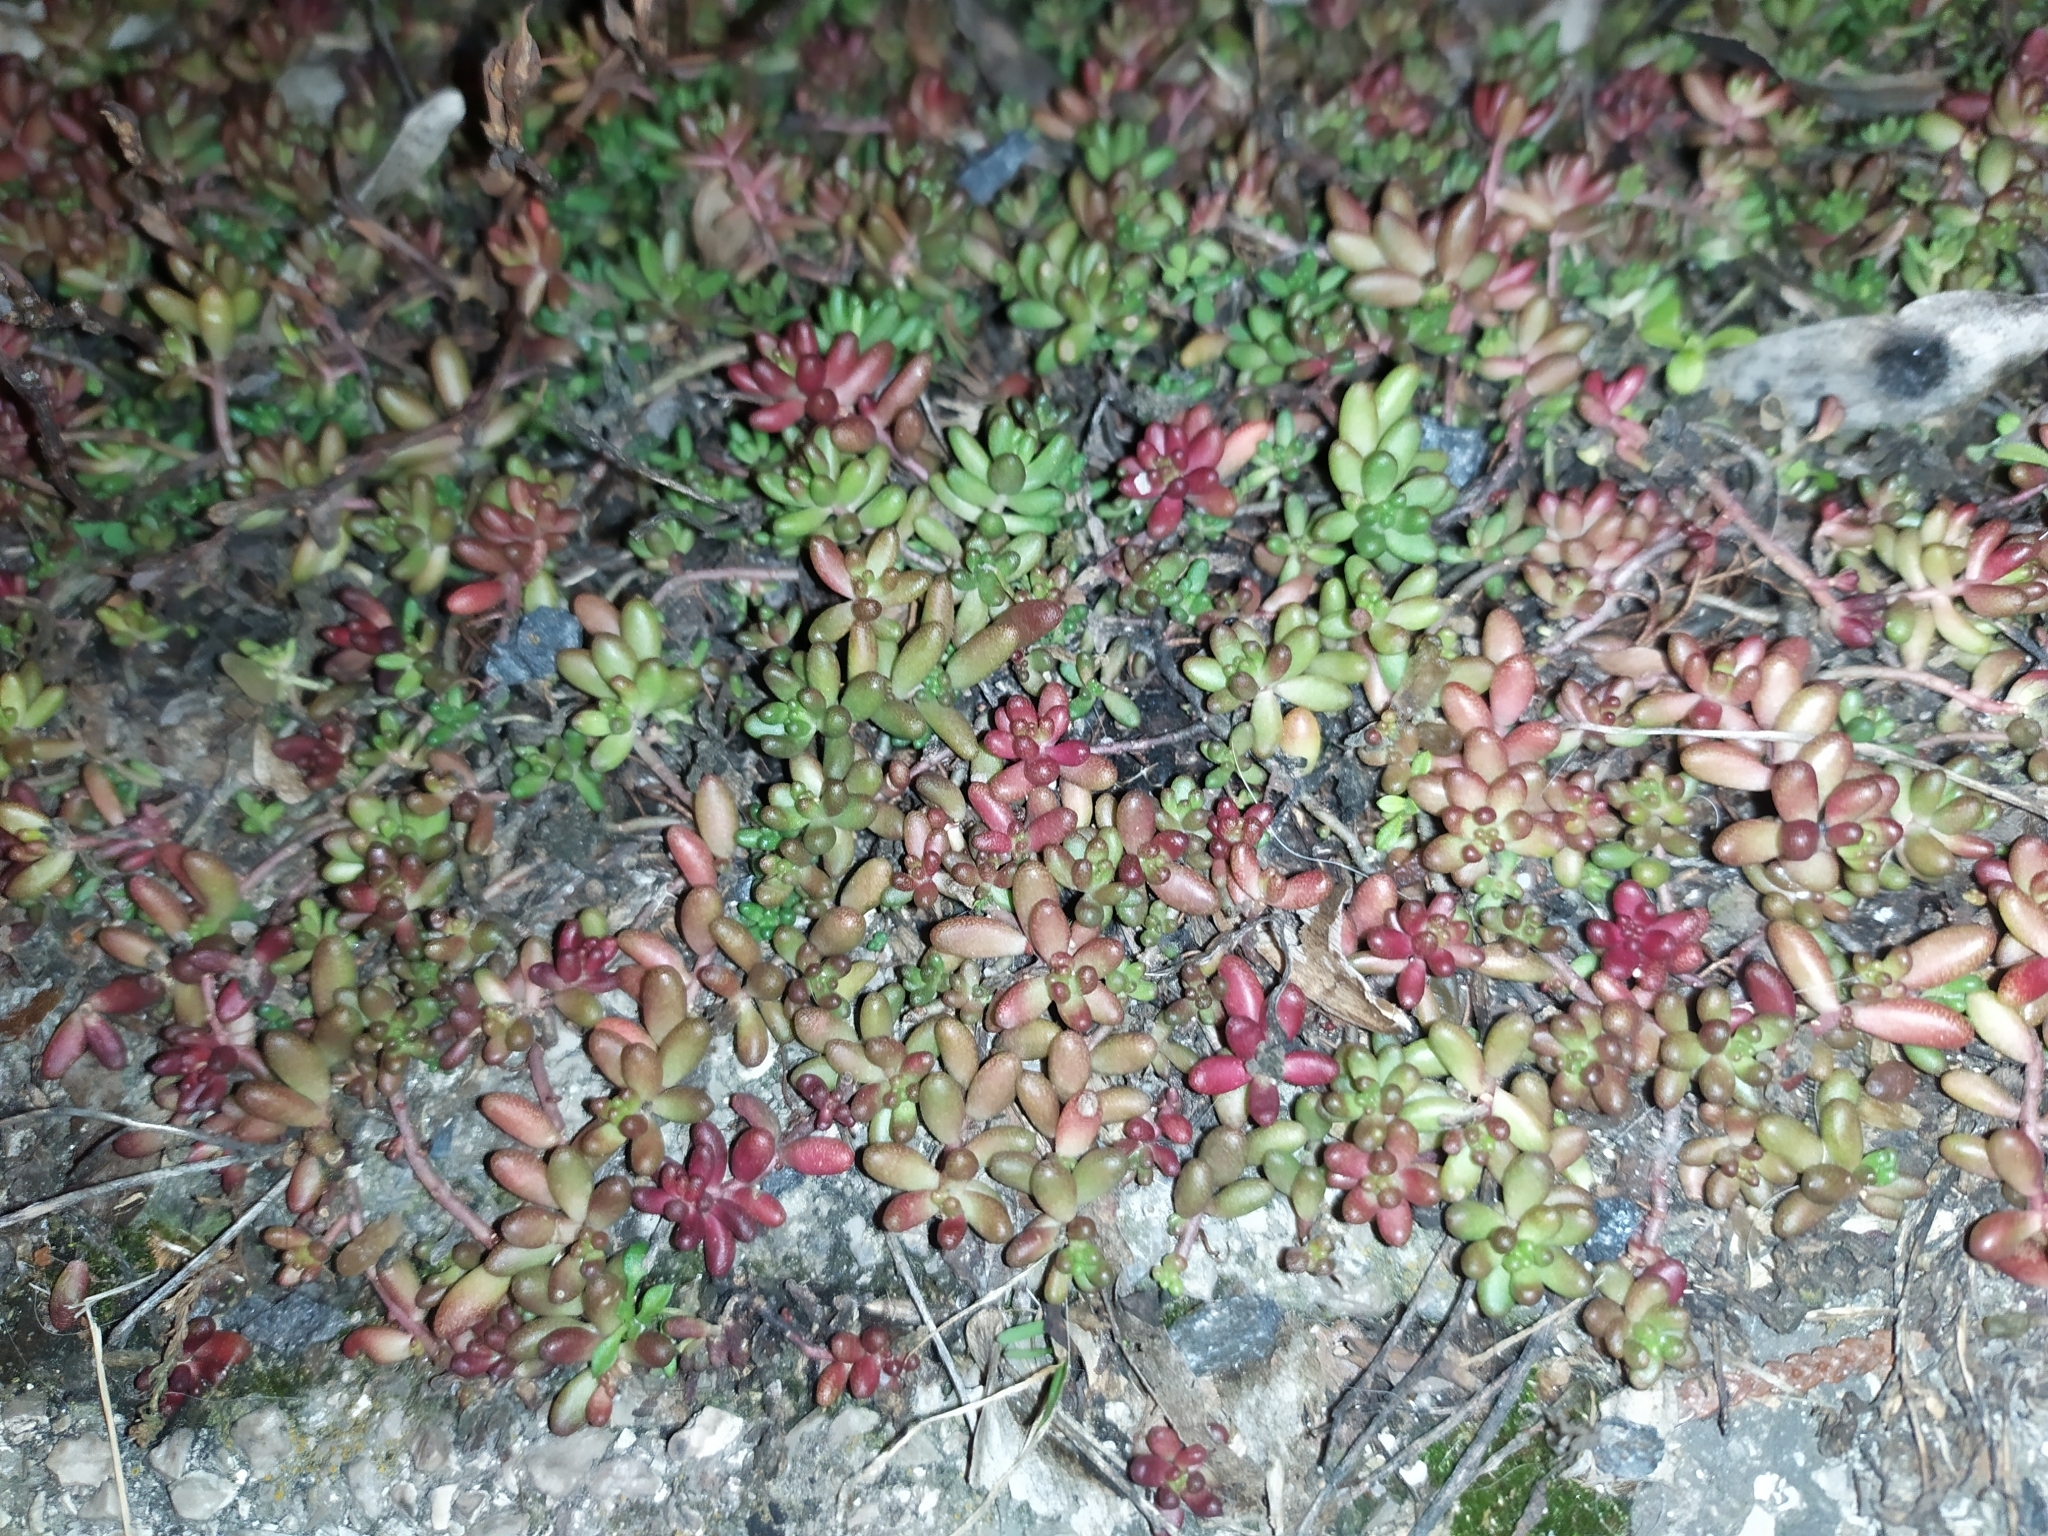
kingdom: Plantae
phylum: Tracheophyta
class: Magnoliopsida
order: Saxifragales
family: Crassulaceae
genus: Sedum
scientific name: Sedum album
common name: White stonecrop
